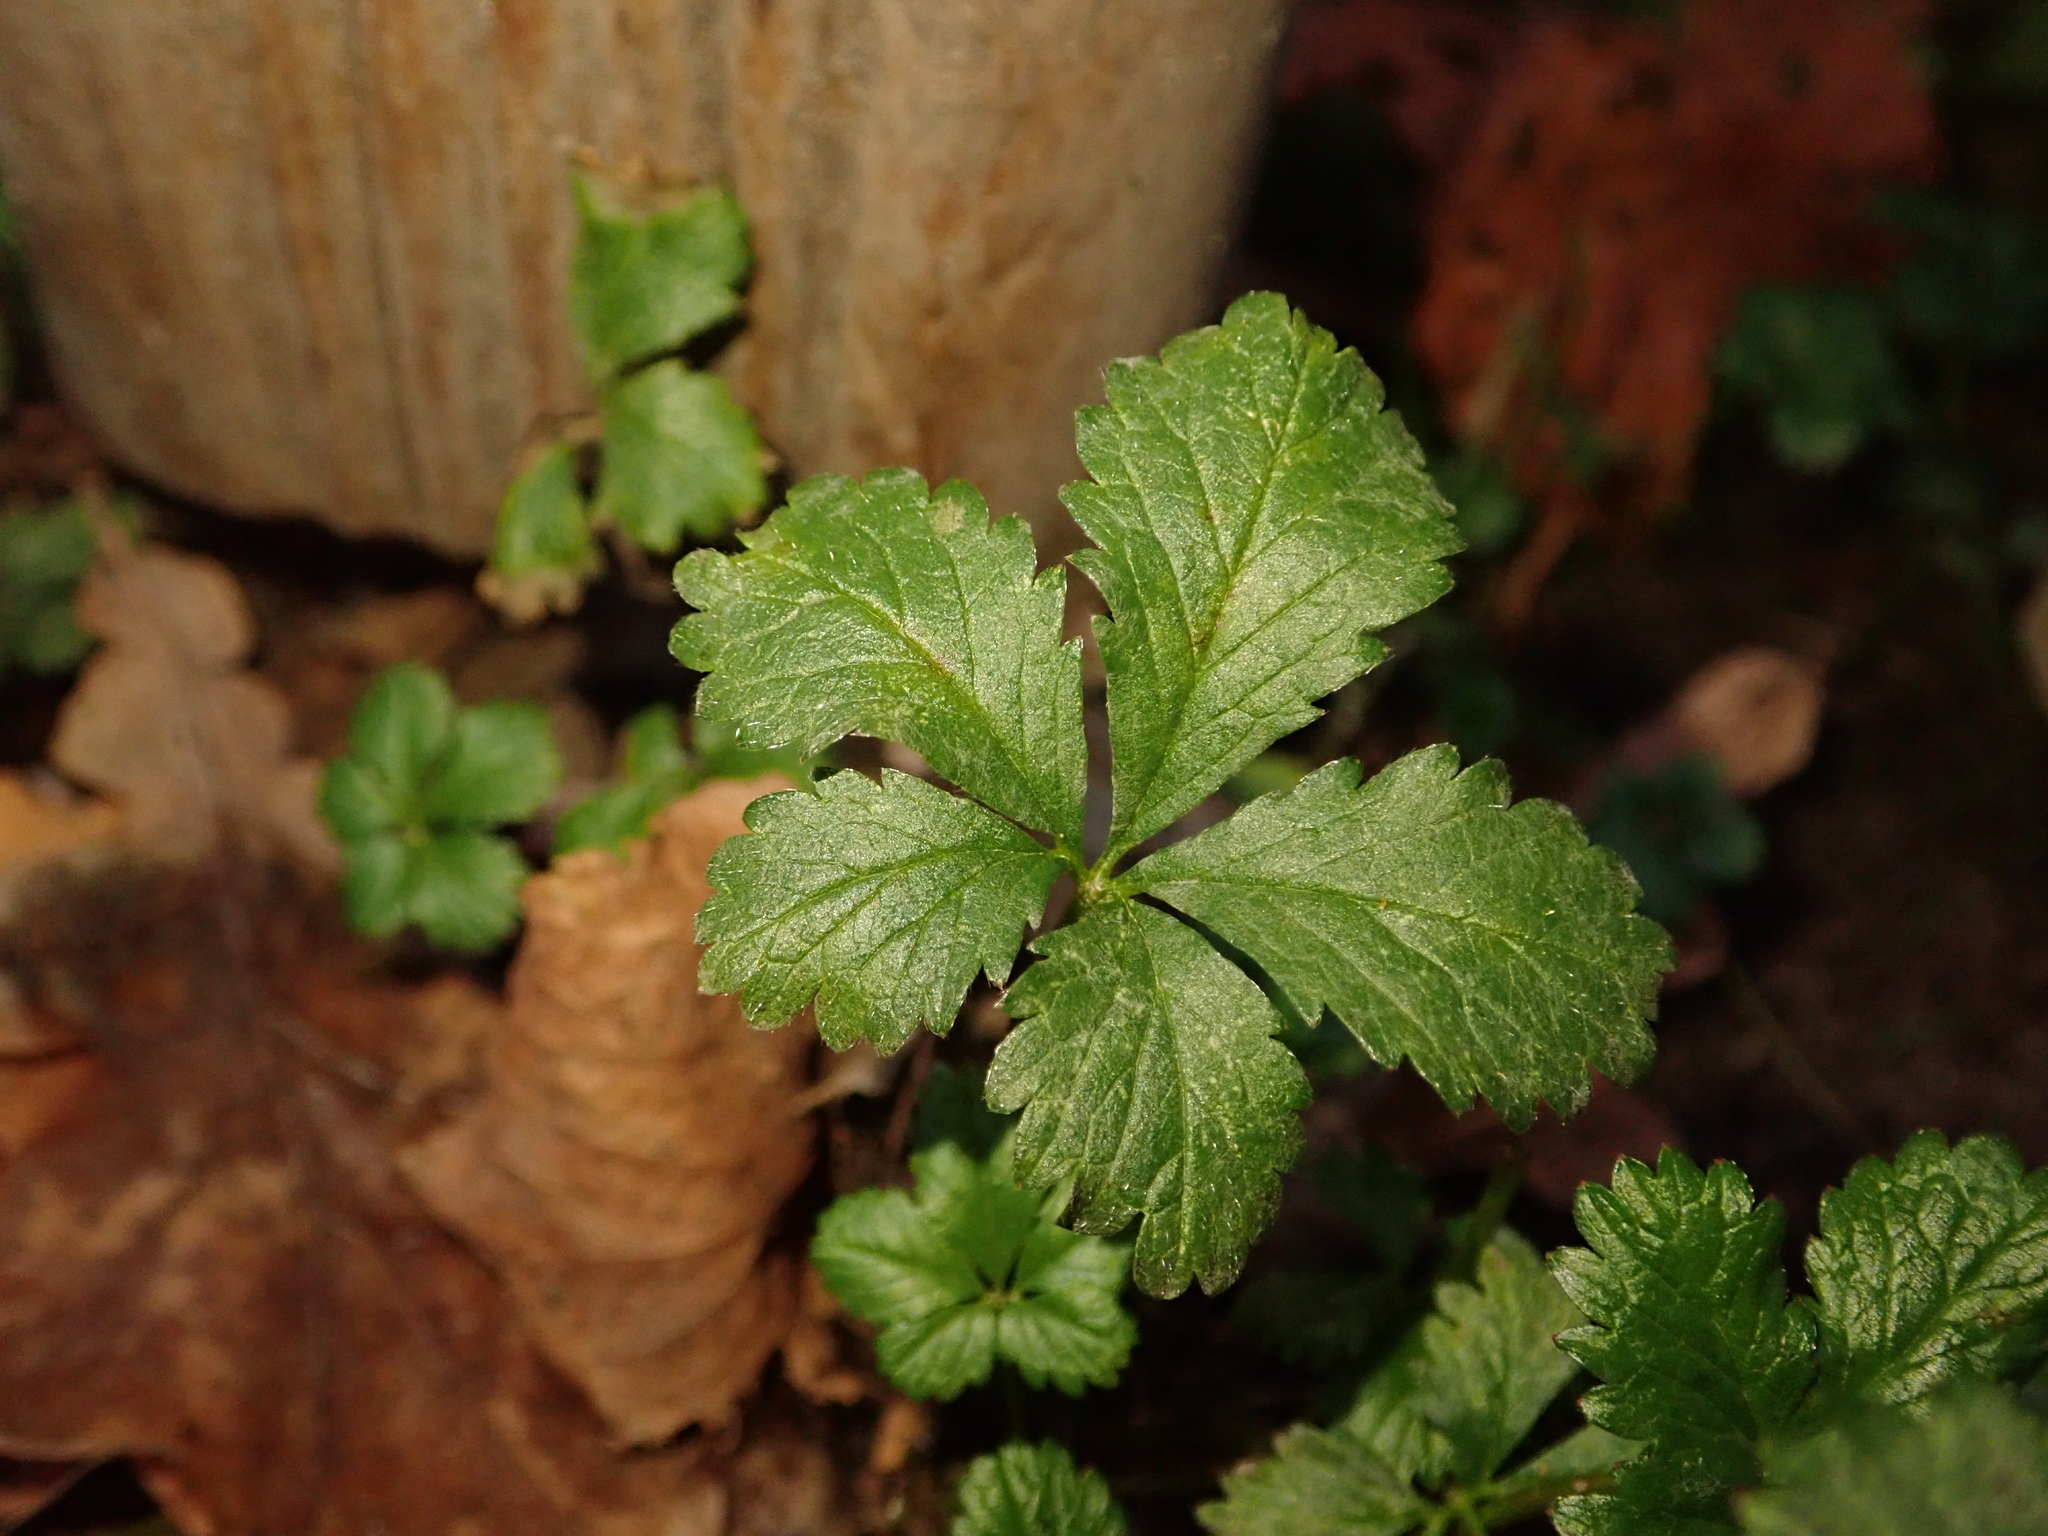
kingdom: Plantae
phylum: Tracheophyta
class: Magnoliopsida
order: Rosales
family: Rosaceae
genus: Potentilla
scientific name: Potentilla reptans
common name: Creeping cinquefoil
